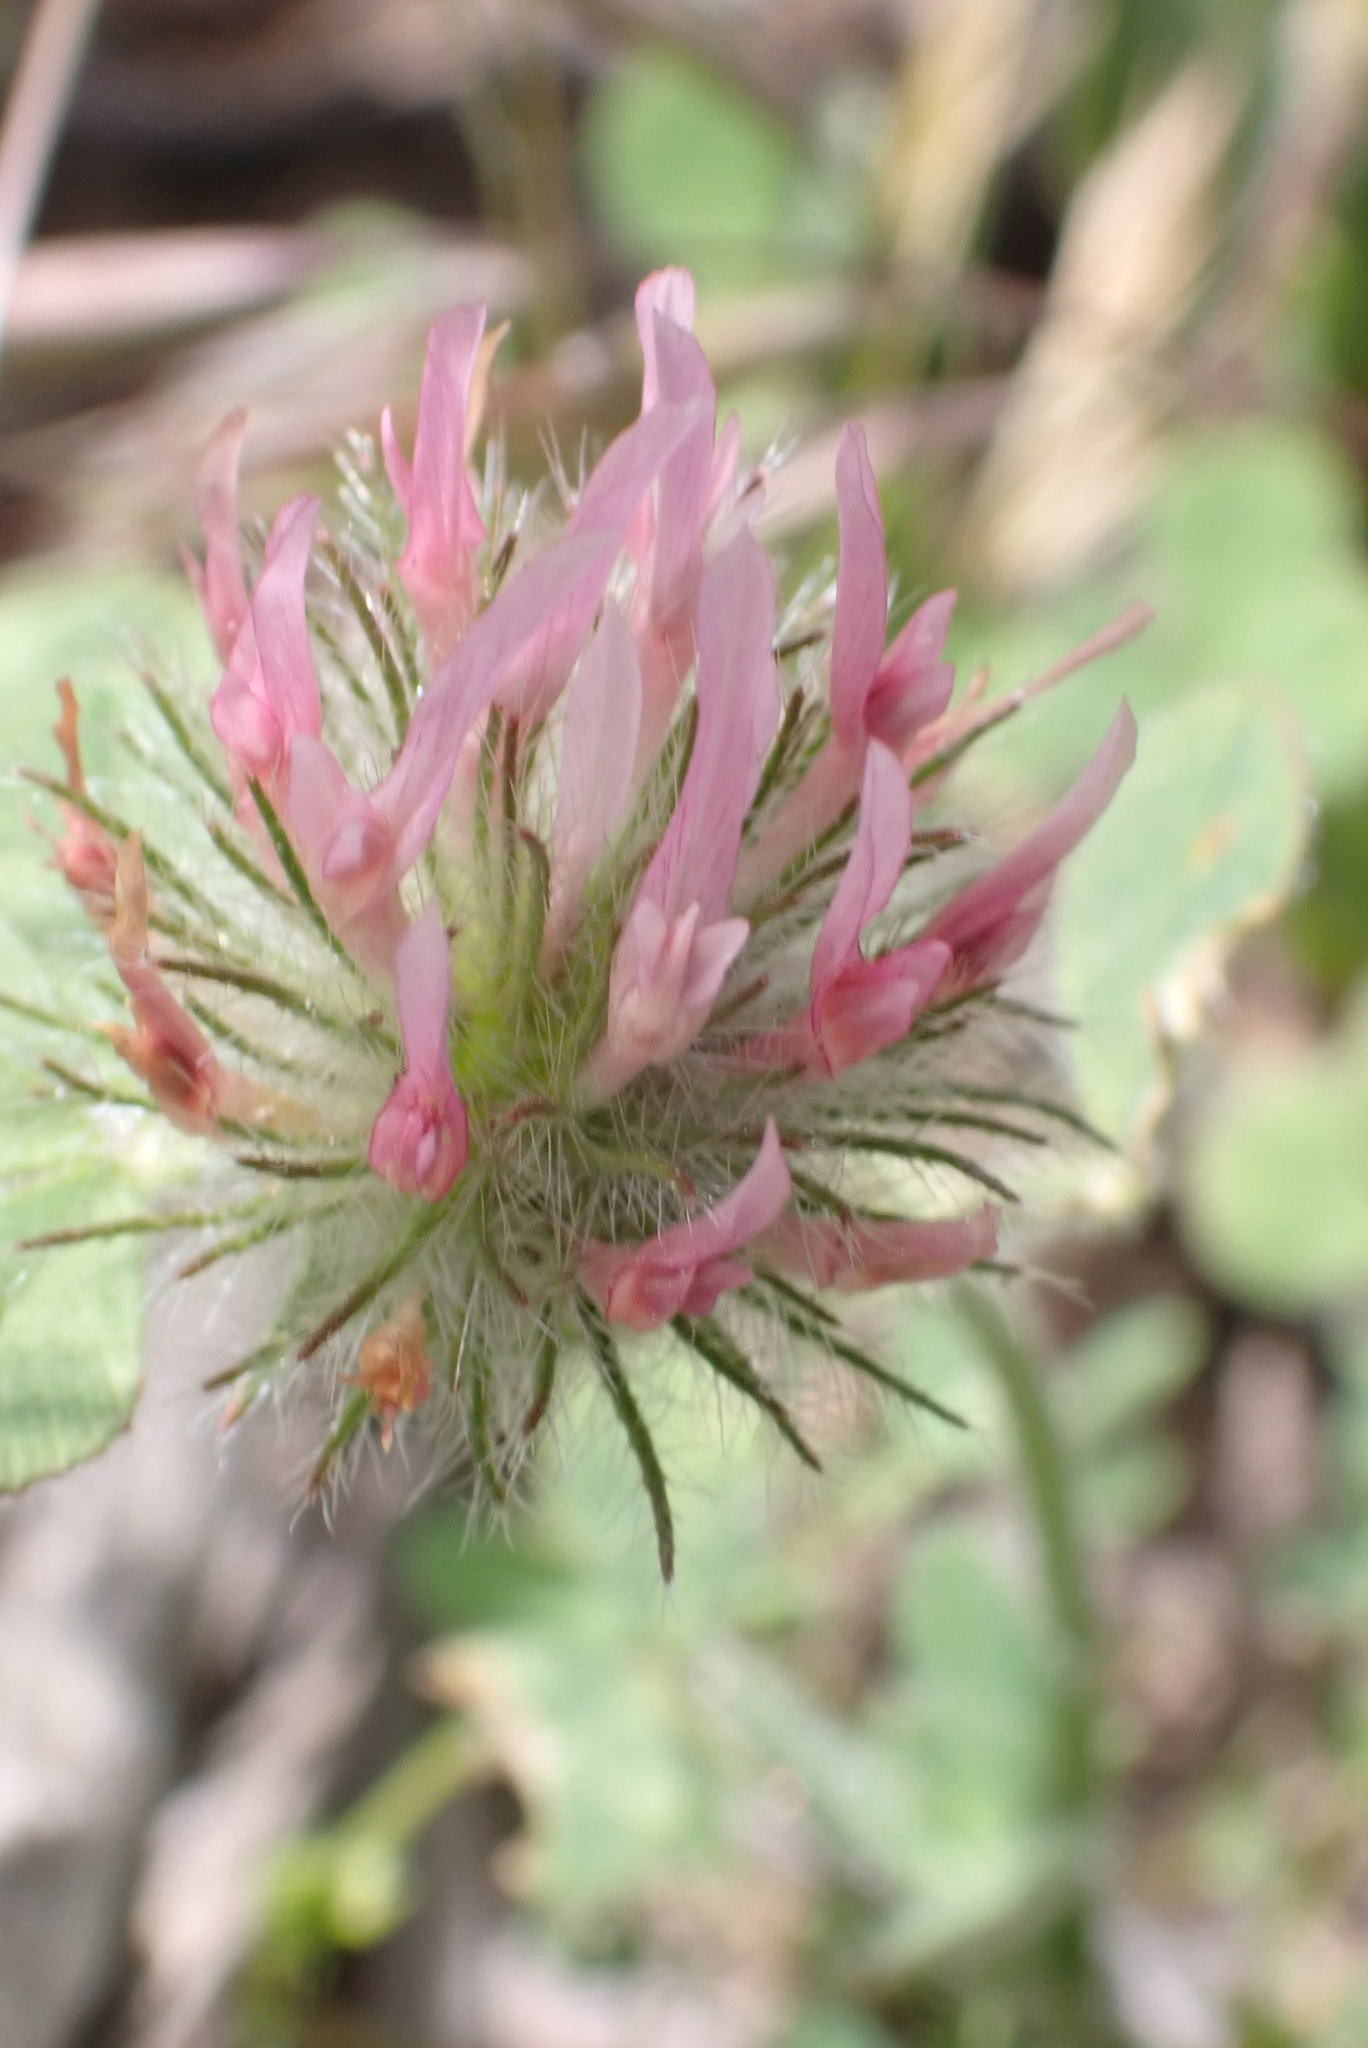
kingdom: Plantae
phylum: Tracheophyta
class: Magnoliopsida
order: Fabales
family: Fabaceae
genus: Trifolium
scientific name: Trifolium hirtum
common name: Rose clover
